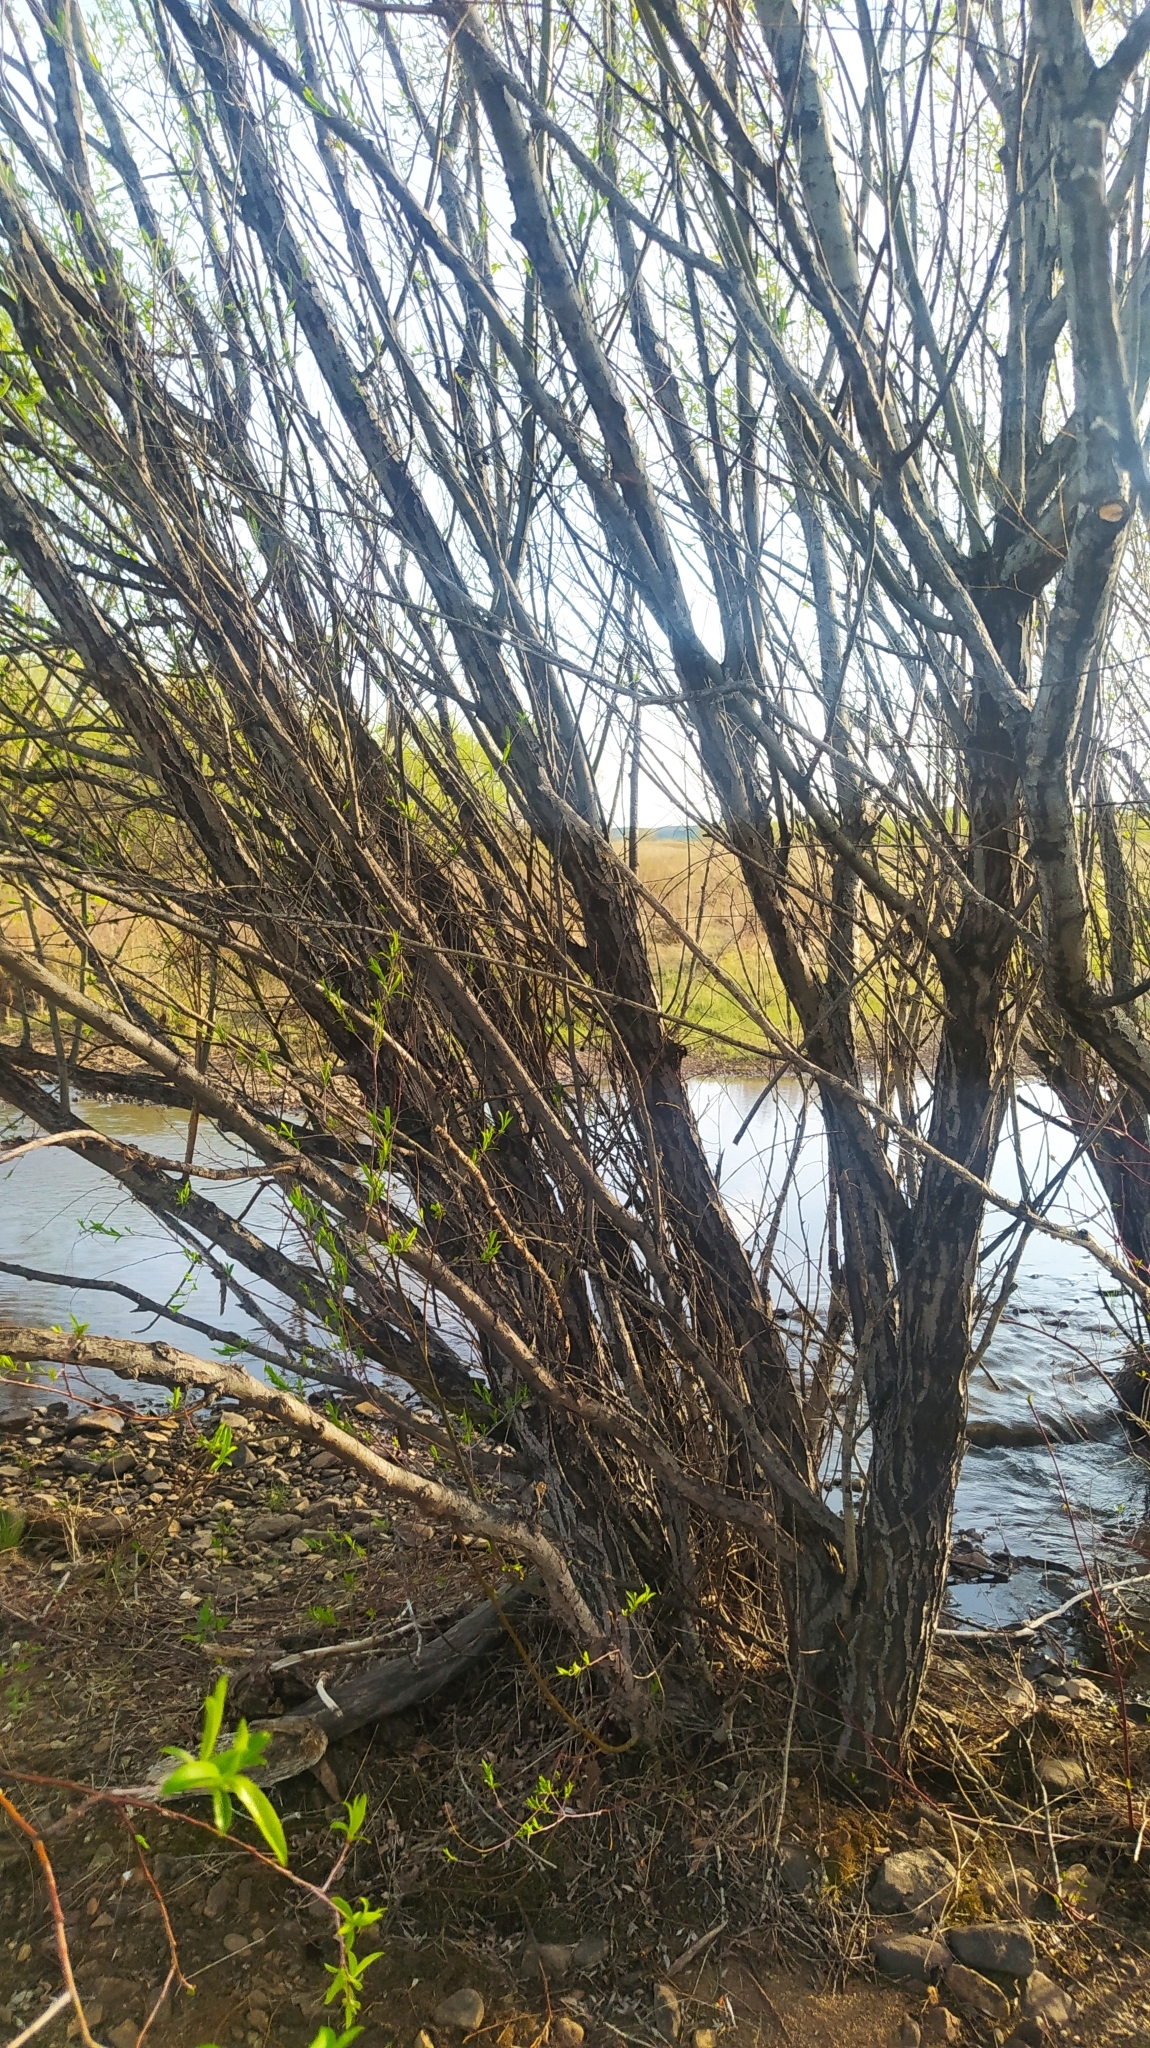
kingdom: Plantae
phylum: Tracheophyta
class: Magnoliopsida
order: Malpighiales
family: Salicaceae
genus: Salix
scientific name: Salix rorida
